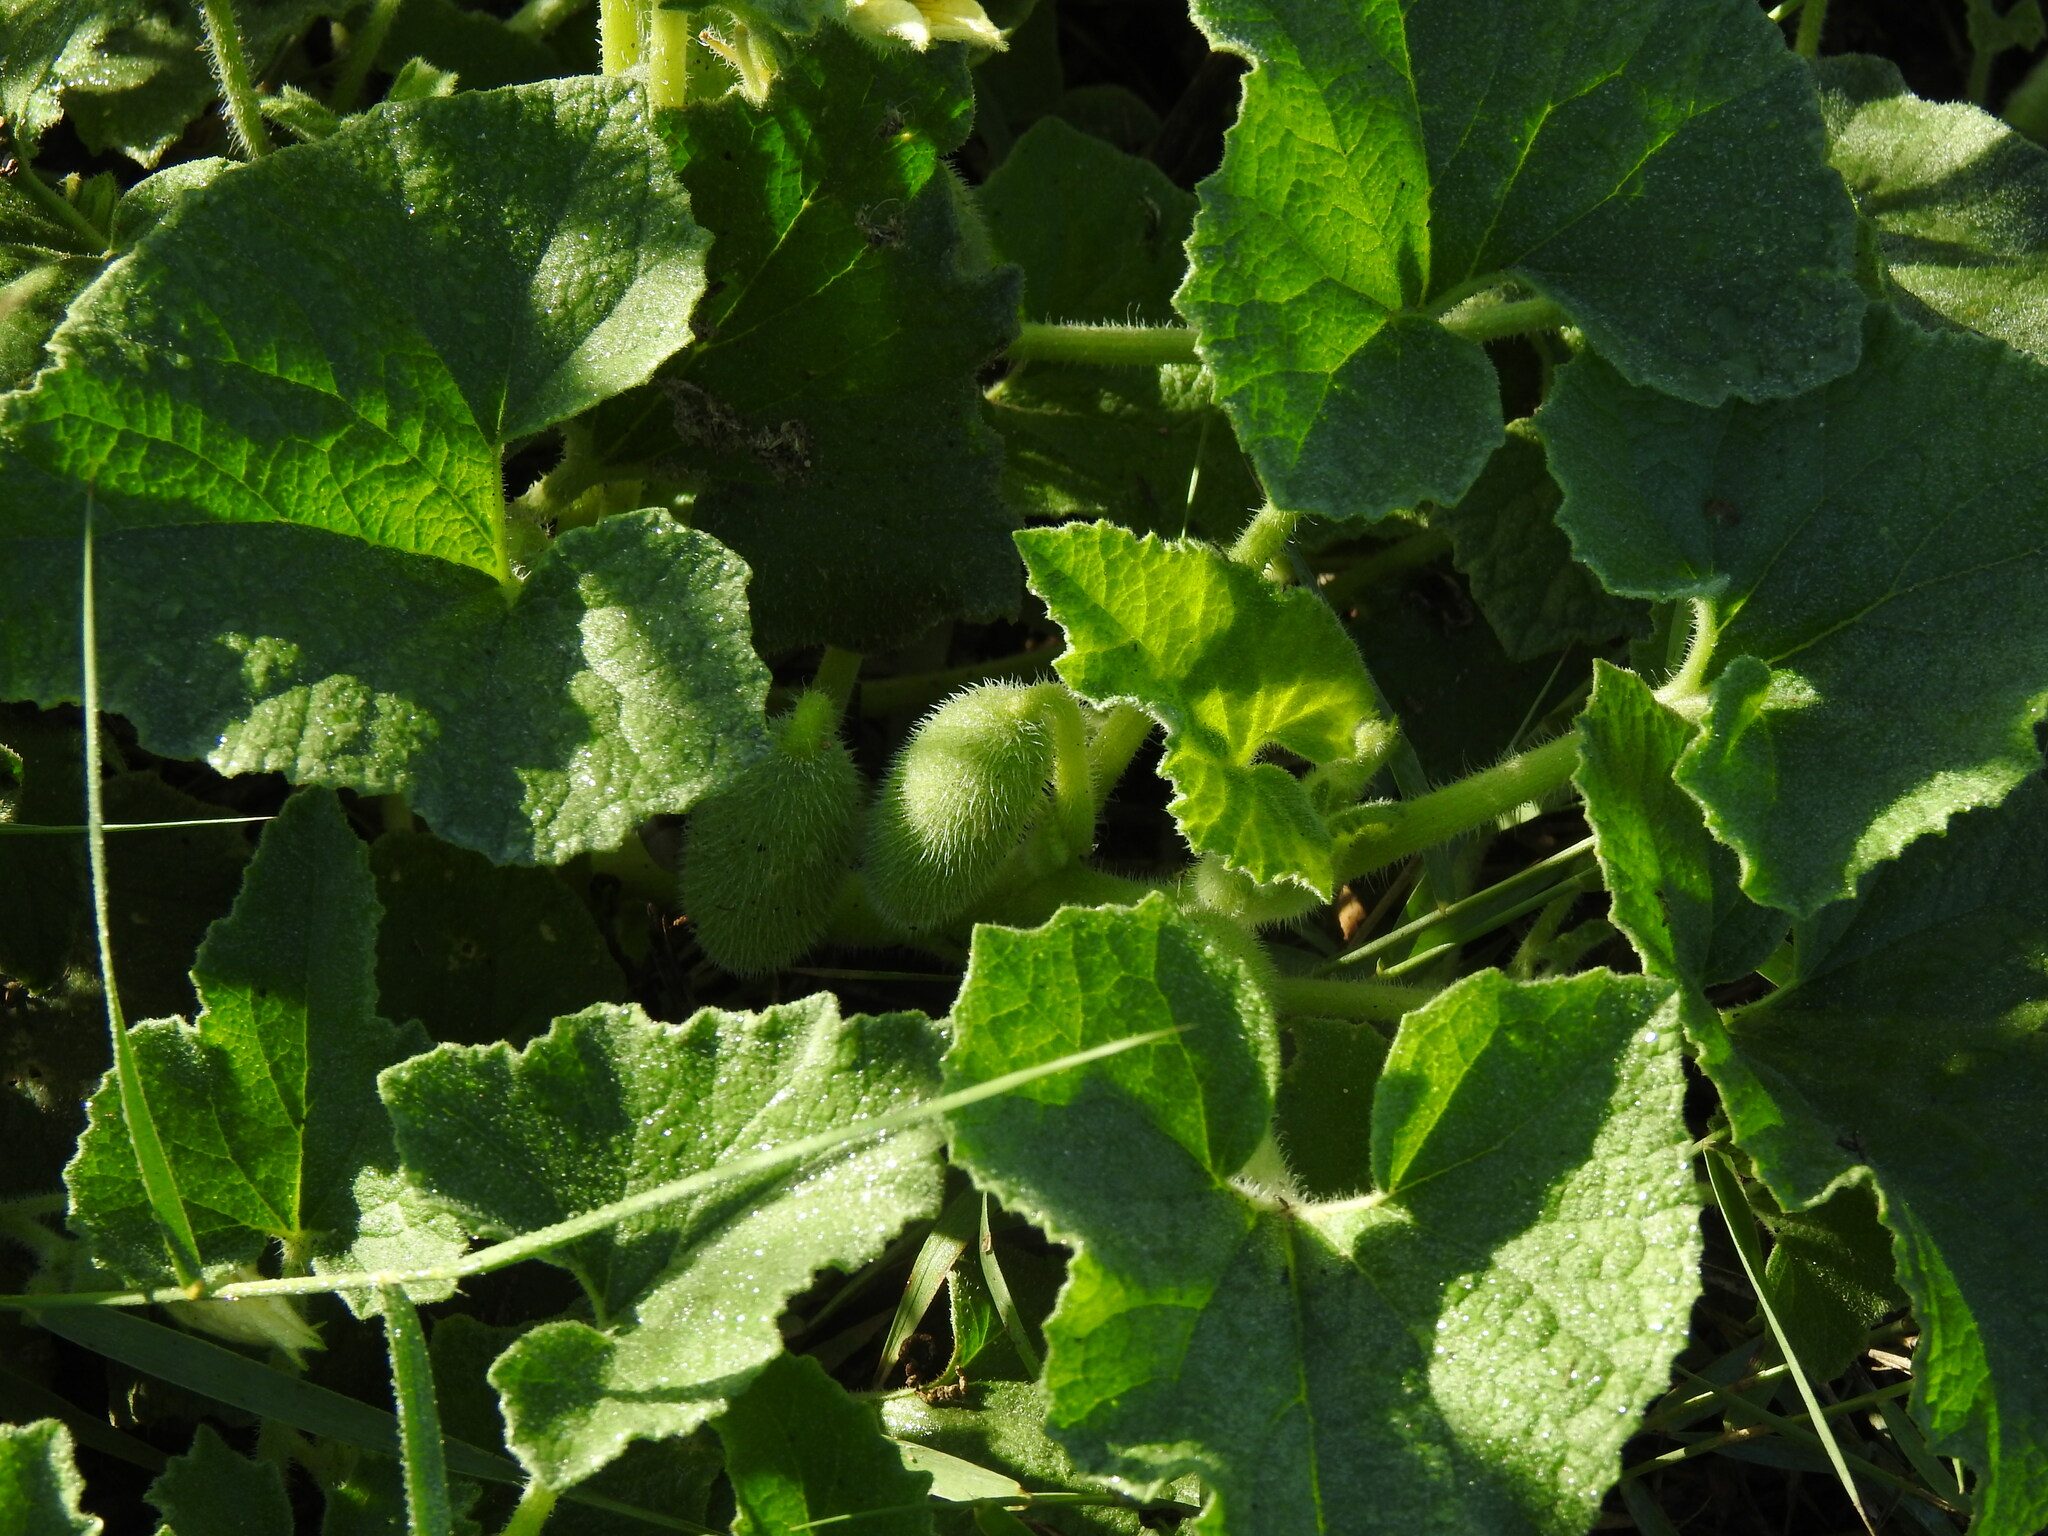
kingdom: Plantae
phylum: Tracheophyta
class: Magnoliopsida
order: Cucurbitales
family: Cucurbitaceae
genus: Ecballium
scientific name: Ecballium elaterium
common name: Squirting cucumber
